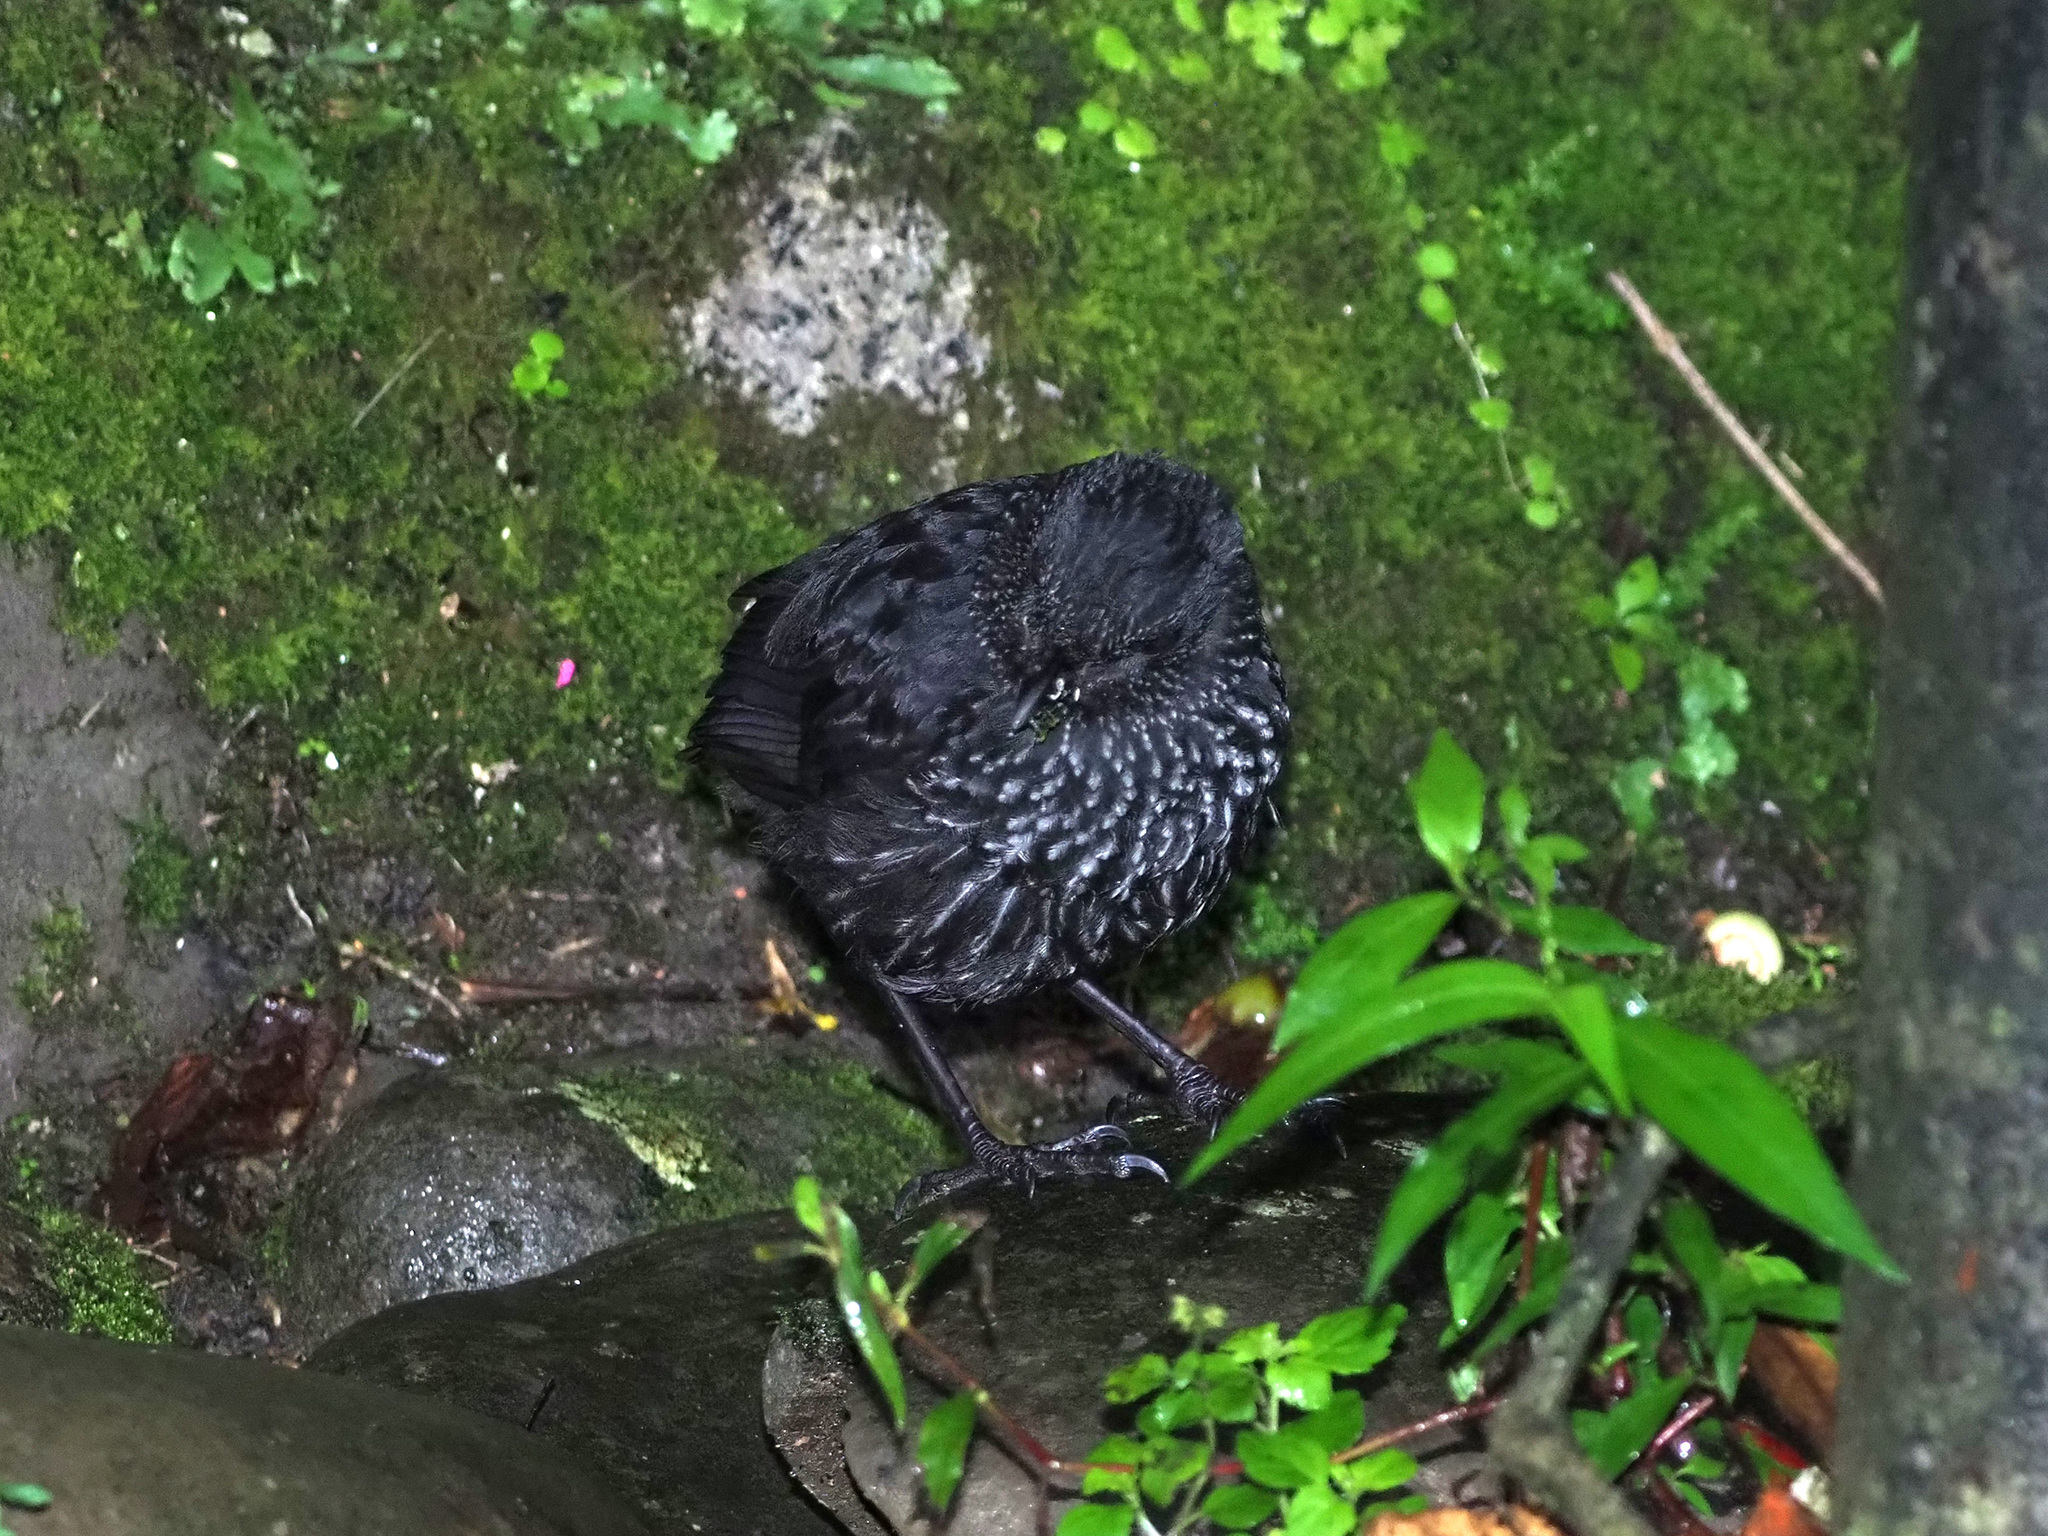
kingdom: Animalia
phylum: Chordata
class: Aves
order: Passeriformes
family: Muscicapidae
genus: Myophonus
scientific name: Myophonus borneensis
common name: Bornean whistling-thrush
